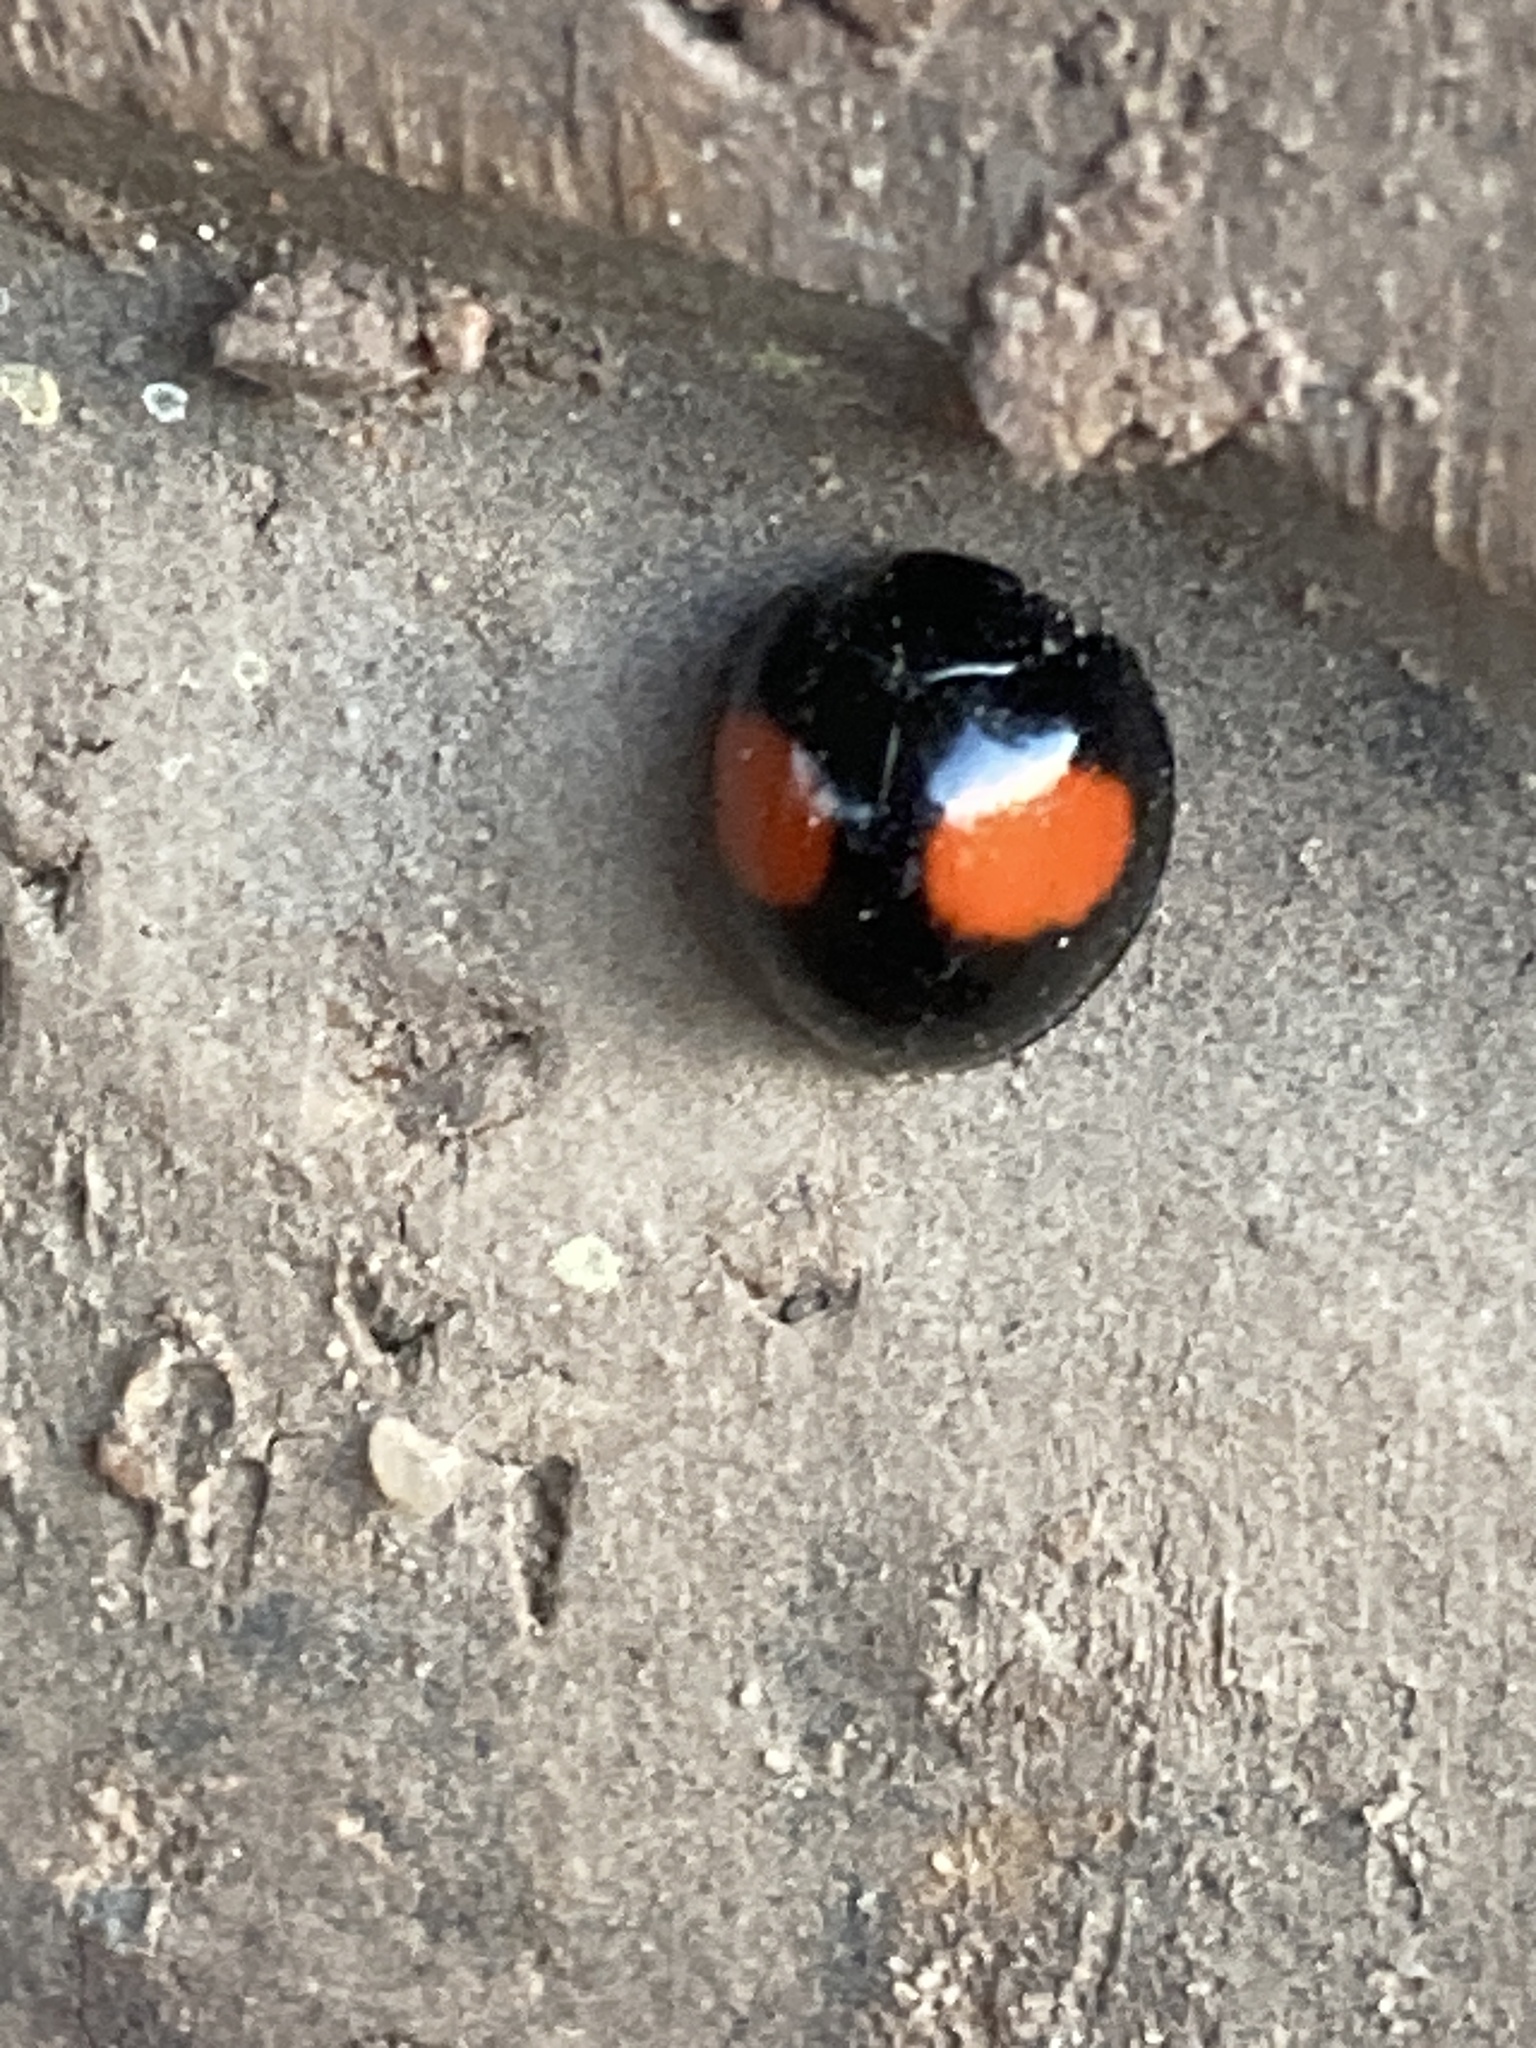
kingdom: Animalia
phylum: Arthropoda
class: Insecta
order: Coleoptera
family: Coccinellidae
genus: Olla
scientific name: Olla v-nigrum
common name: Ashy gray lady beetle
